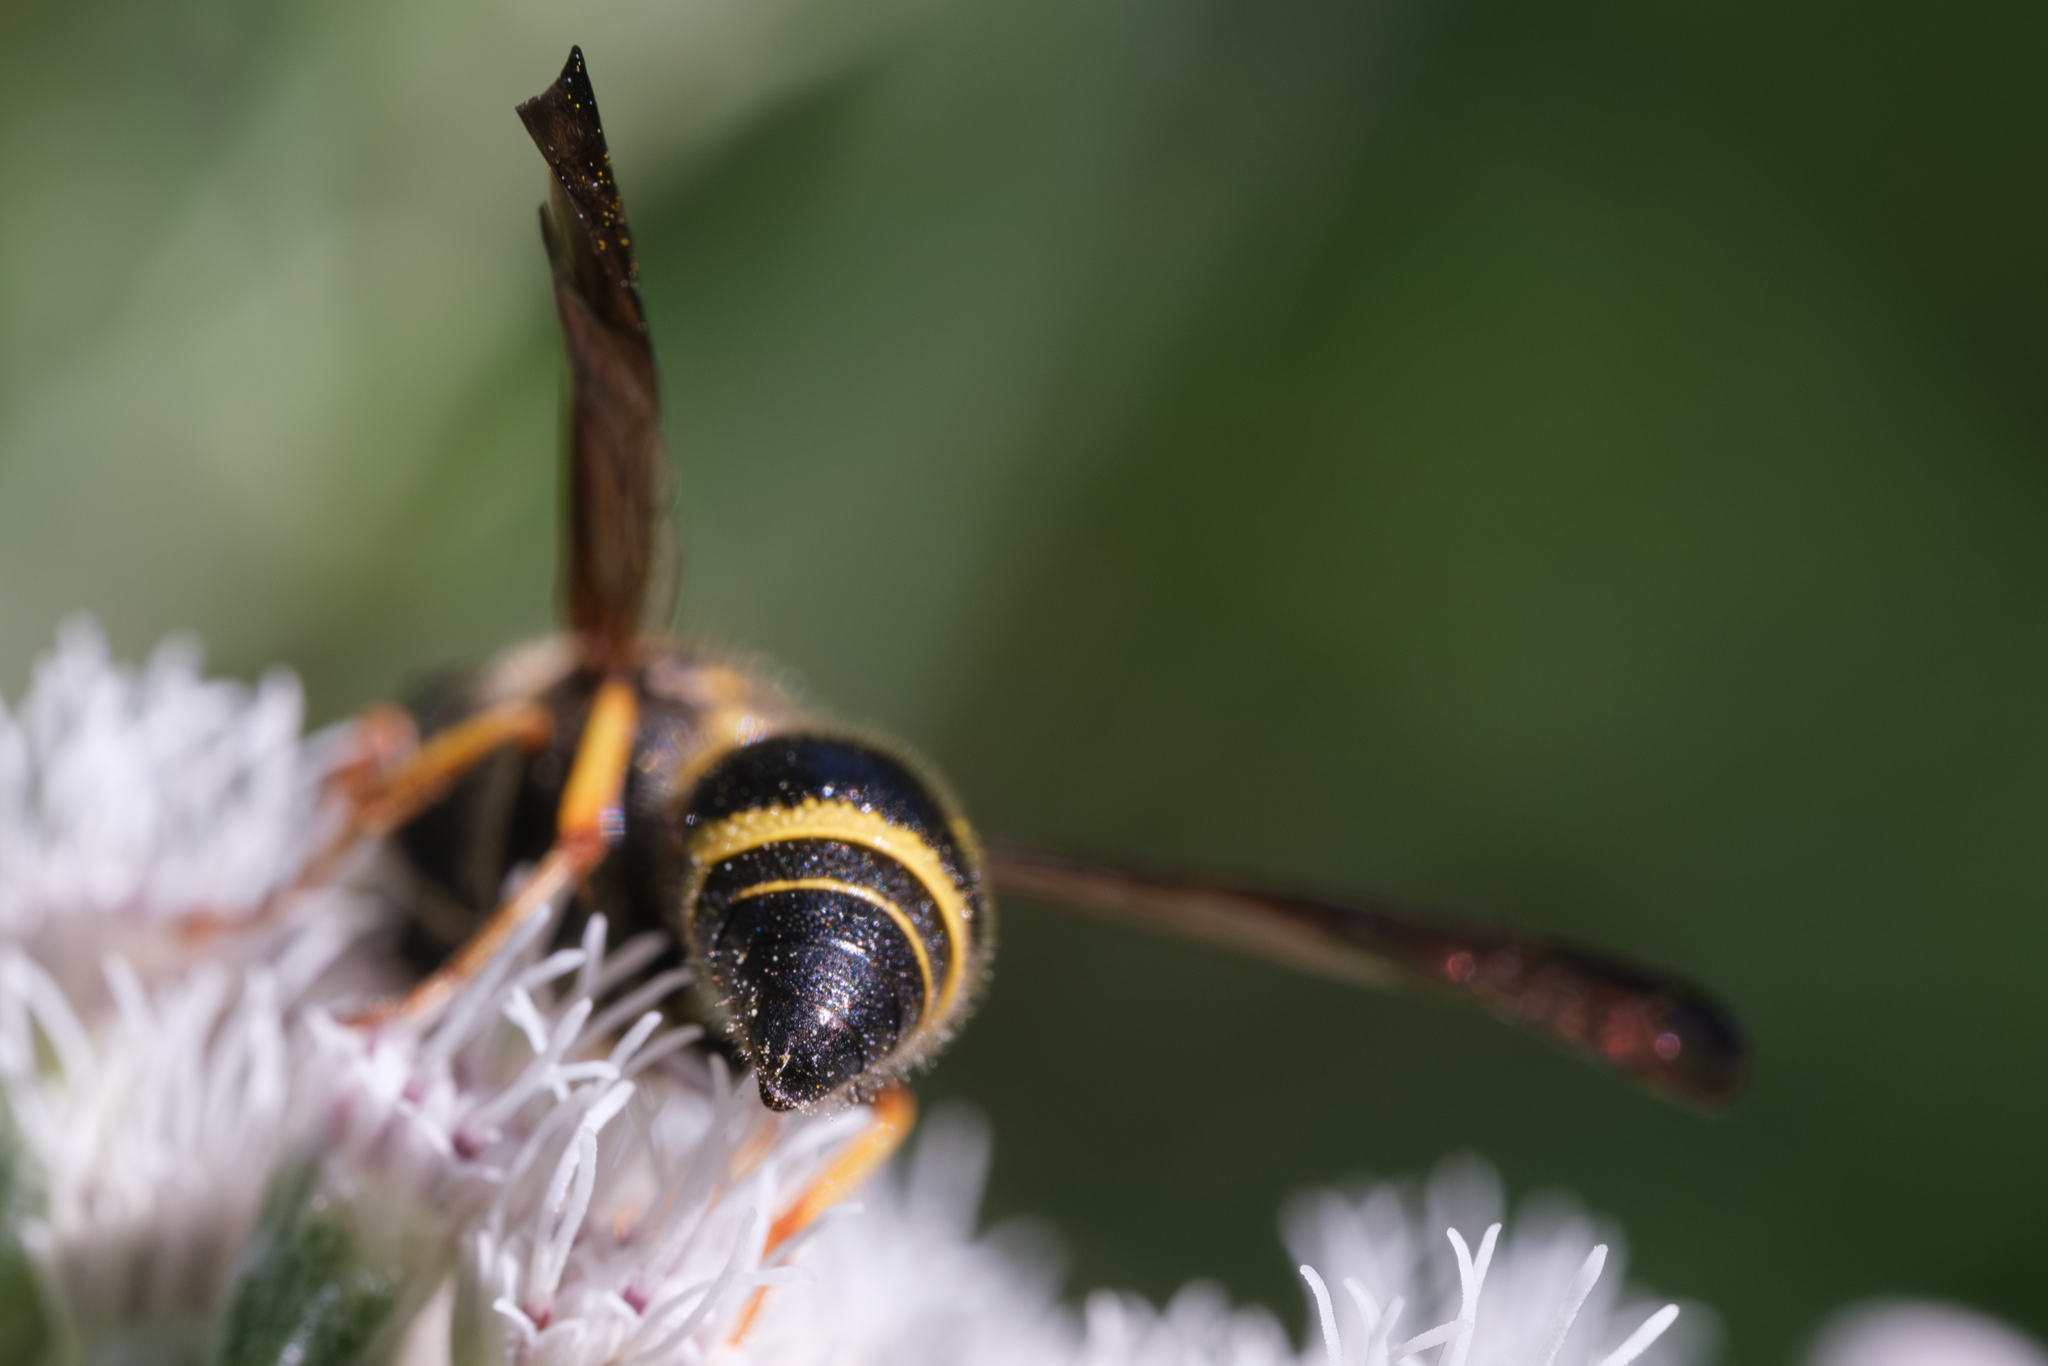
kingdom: Animalia
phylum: Arthropoda
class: Insecta
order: Hymenoptera
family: Vespidae
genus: Ancistrocerus
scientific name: Ancistrocerus campestris
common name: Smiling mason wasp
